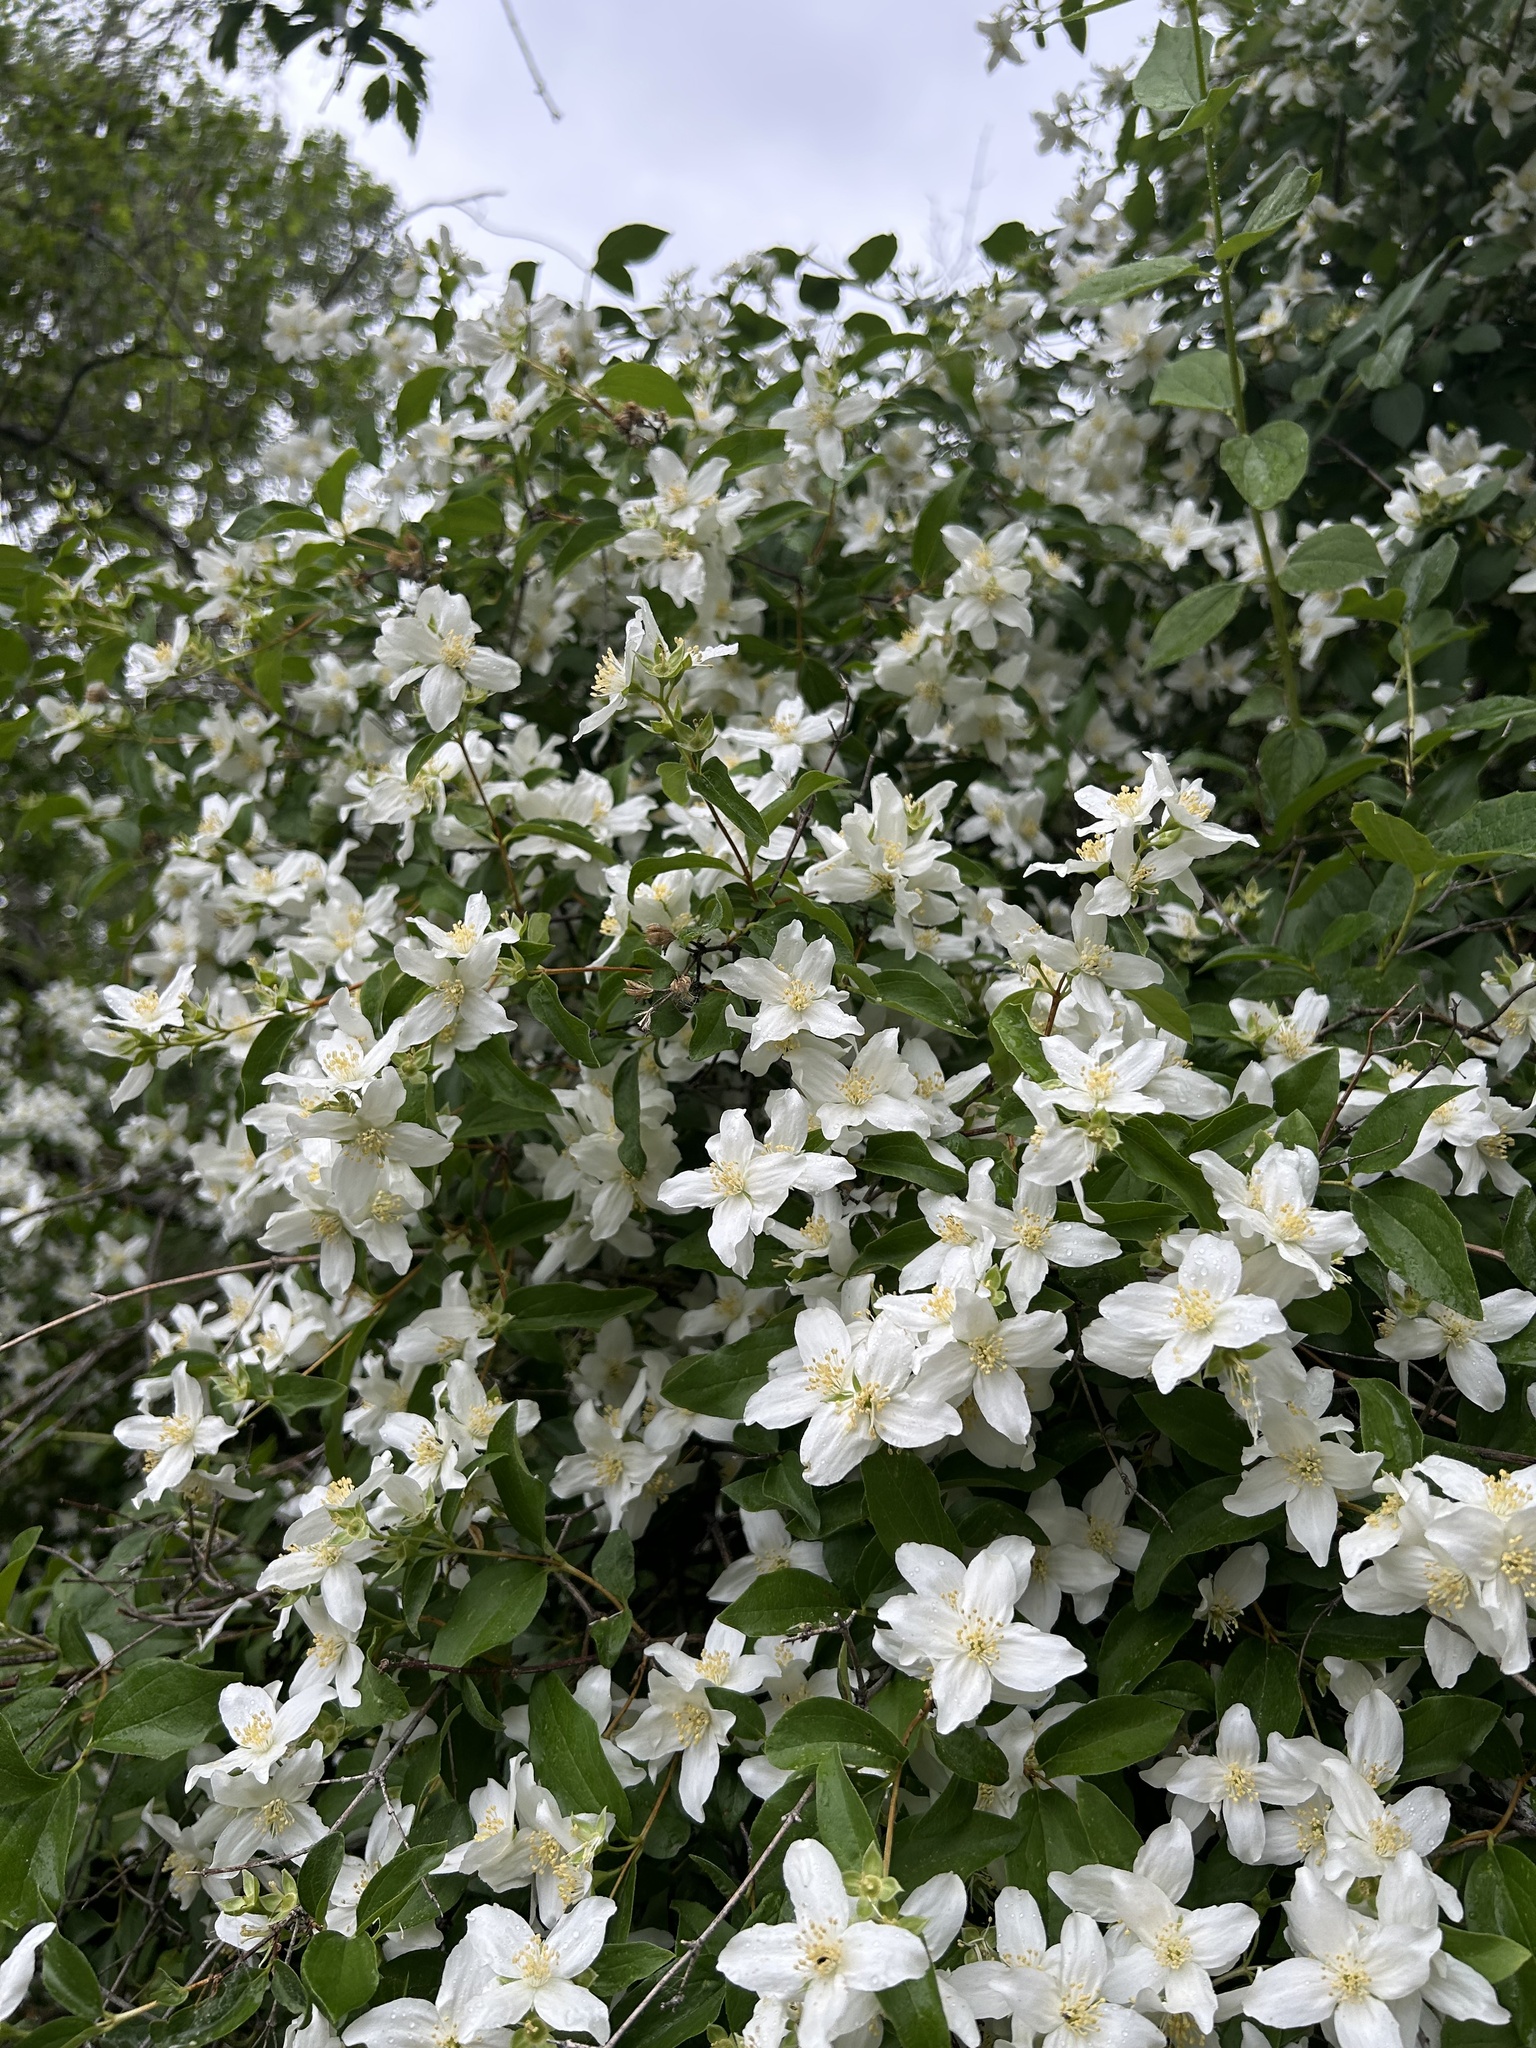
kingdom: Plantae
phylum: Tracheophyta
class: Magnoliopsida
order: Cornales
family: Hydrangeaceae
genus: Philadelphus
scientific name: Philadelphus lewisii
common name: Lewis's mock orange
